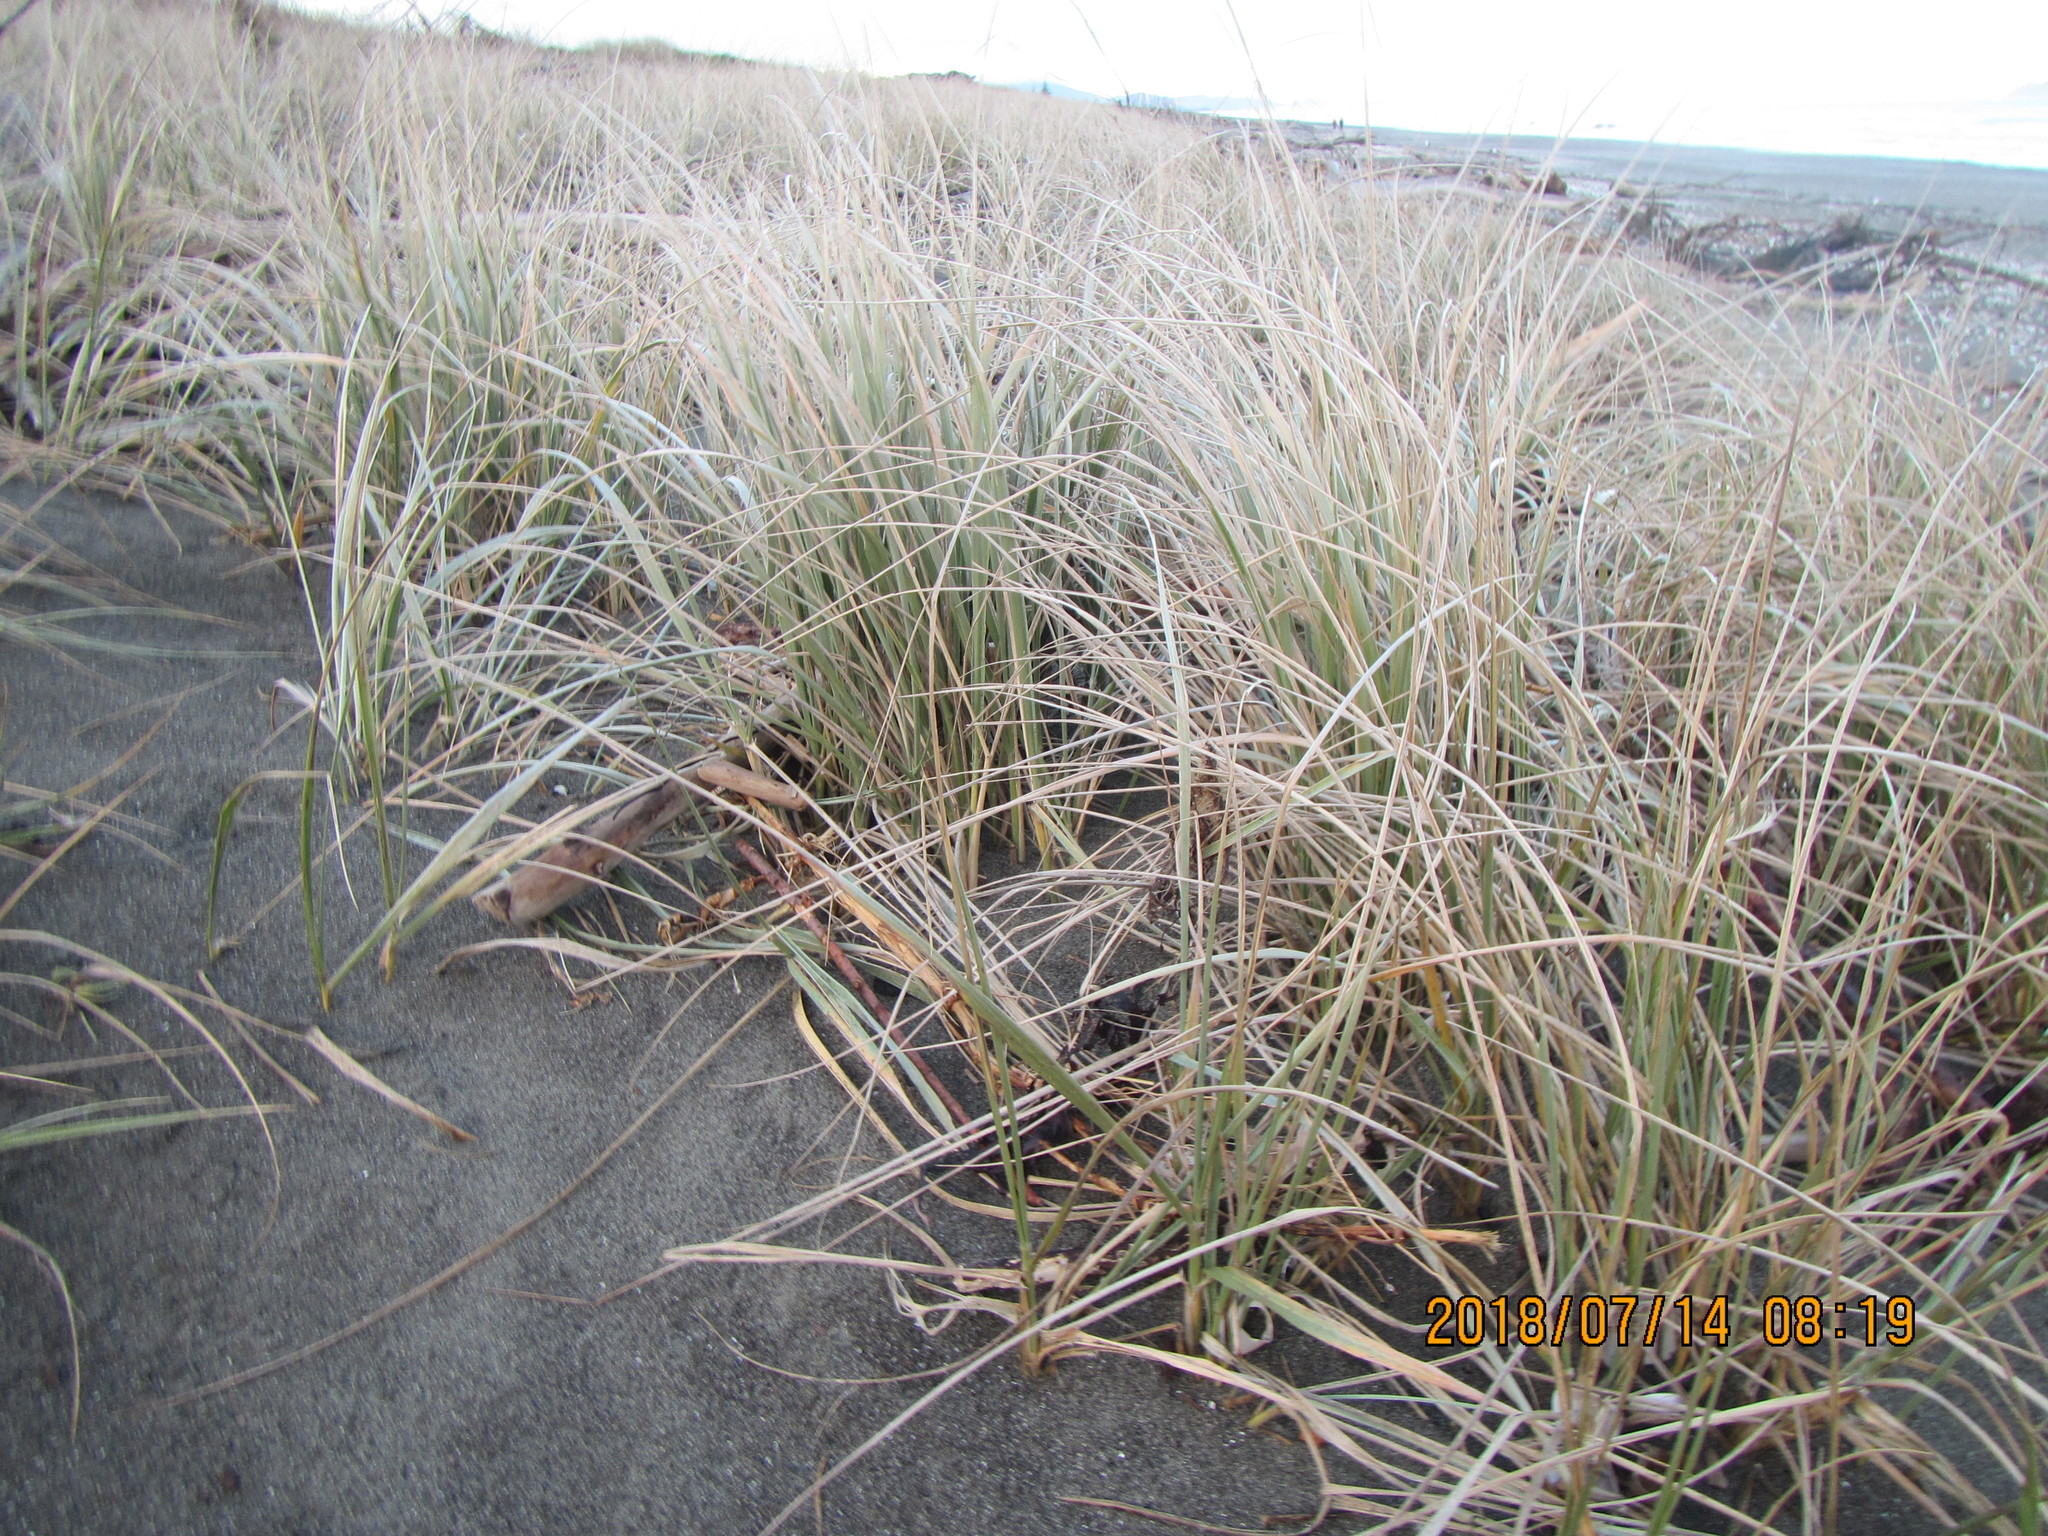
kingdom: Plantae
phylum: Tracheophyta
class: Liliopsida
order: Poales
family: Poaceae
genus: Spinifex
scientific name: Spinifex sericeus
